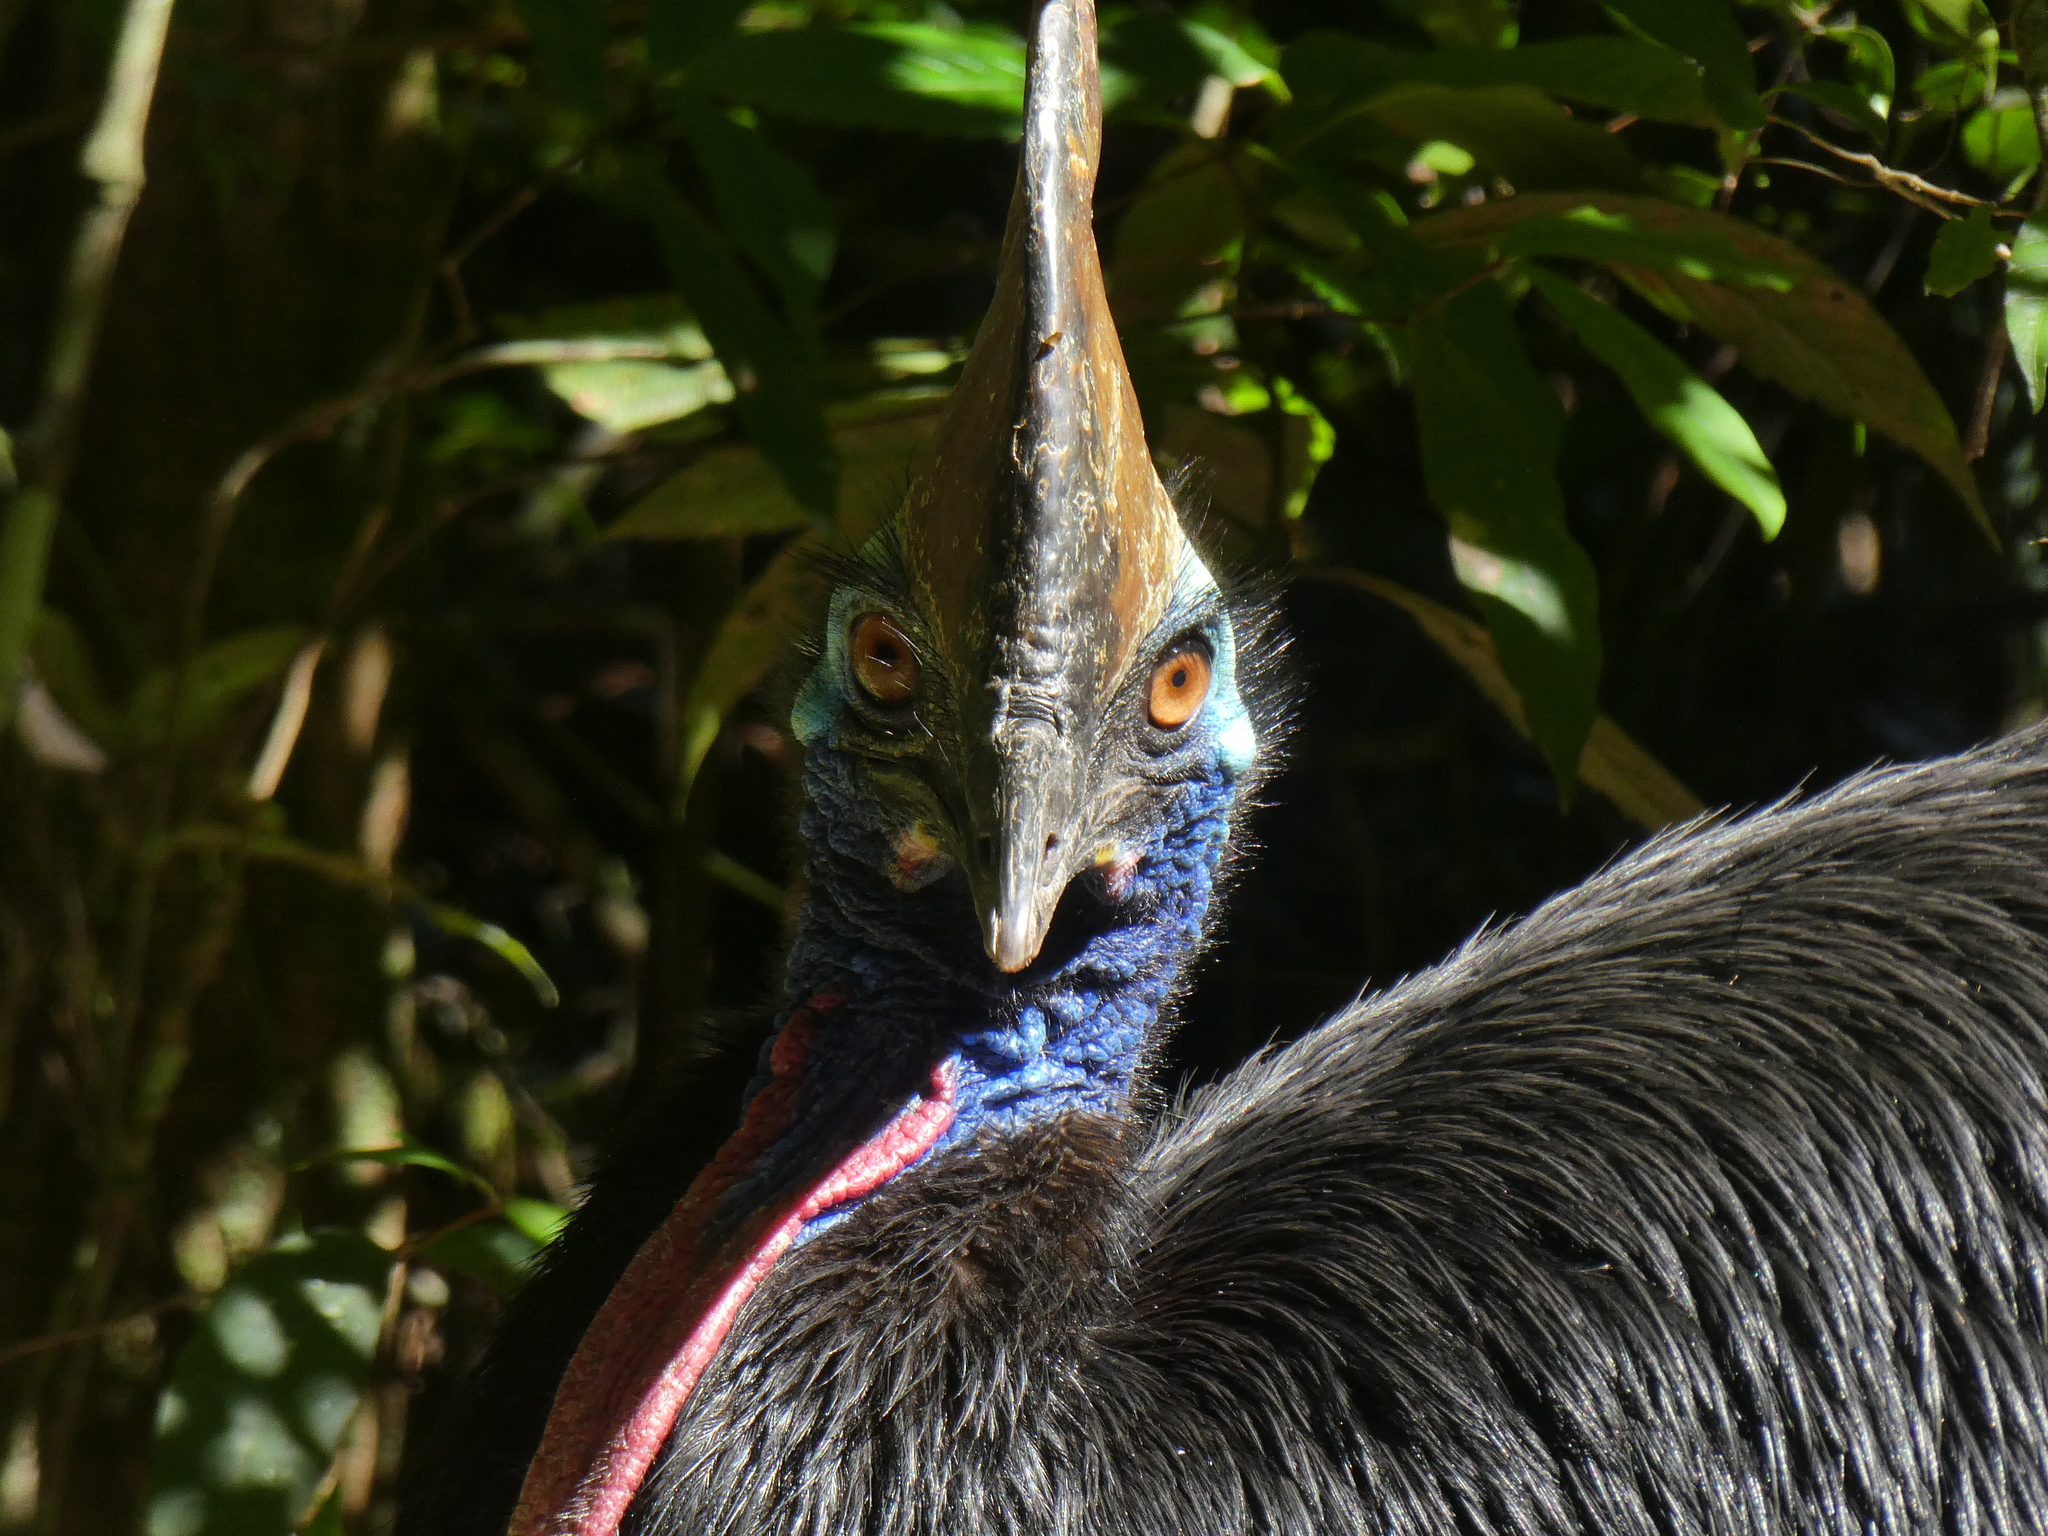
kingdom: Animalia
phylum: Chordata
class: Aves
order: Casuariiformes
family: Casuariidae
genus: Casuarius
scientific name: Casuarius casuarius
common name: Southern cassowary
